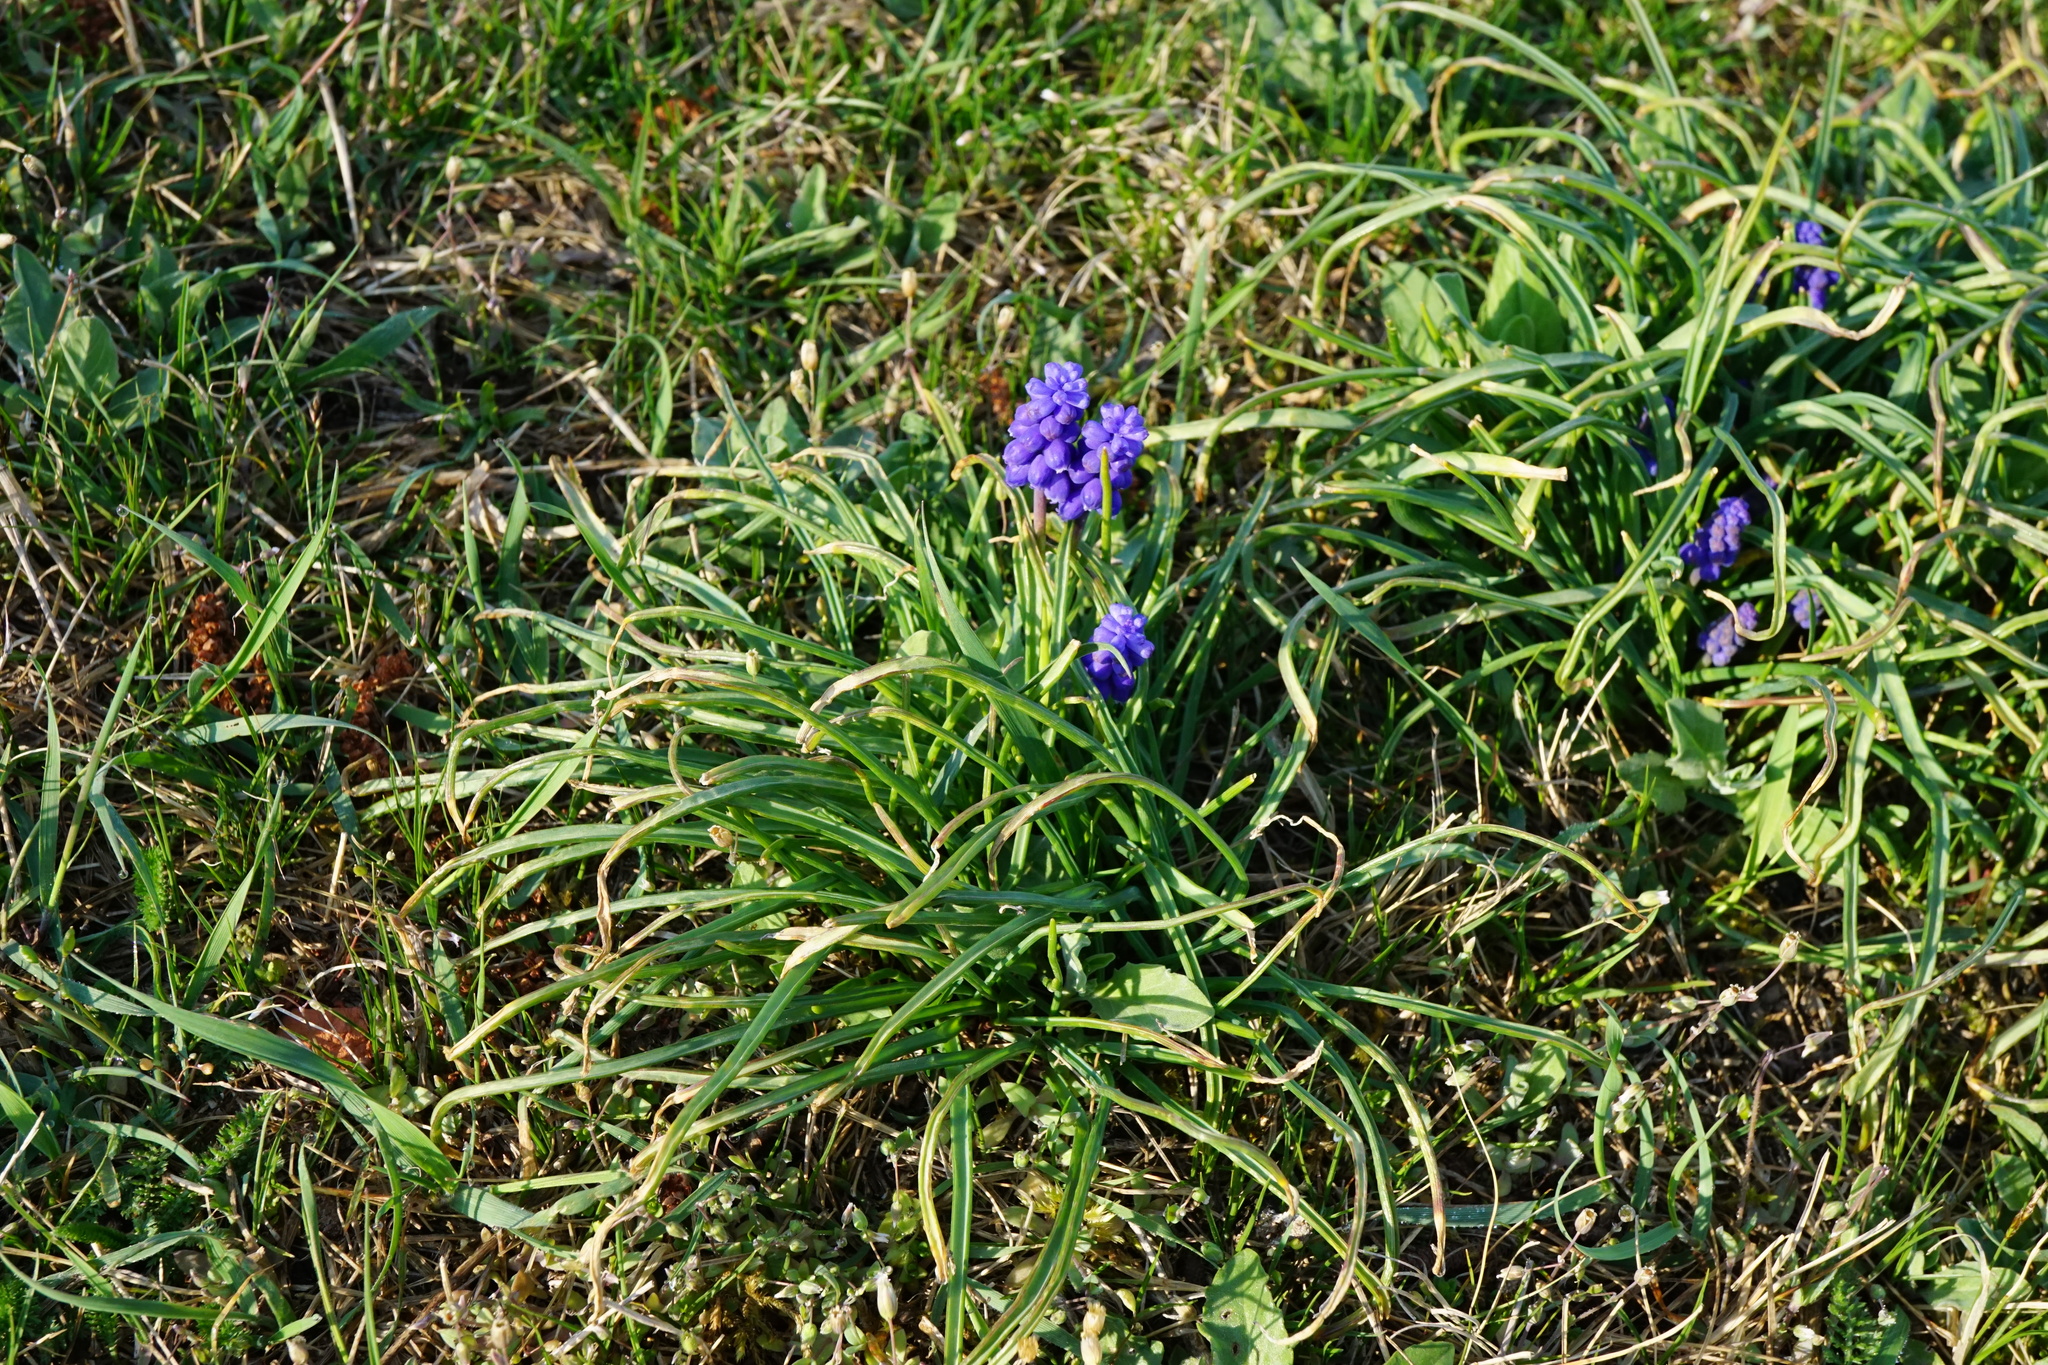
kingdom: Plantae
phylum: Tracheophyta
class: Liliopsida
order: Asparagales
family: Asparagaceae
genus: Muscari
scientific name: Muscari armeniacum
